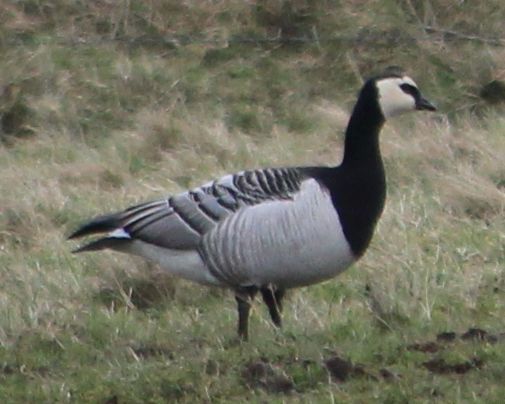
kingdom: Animalia
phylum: Chordata
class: Aves
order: Anseriformes
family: Anatidae
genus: Branta
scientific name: Branta leucopsis
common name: Barnacle goose
